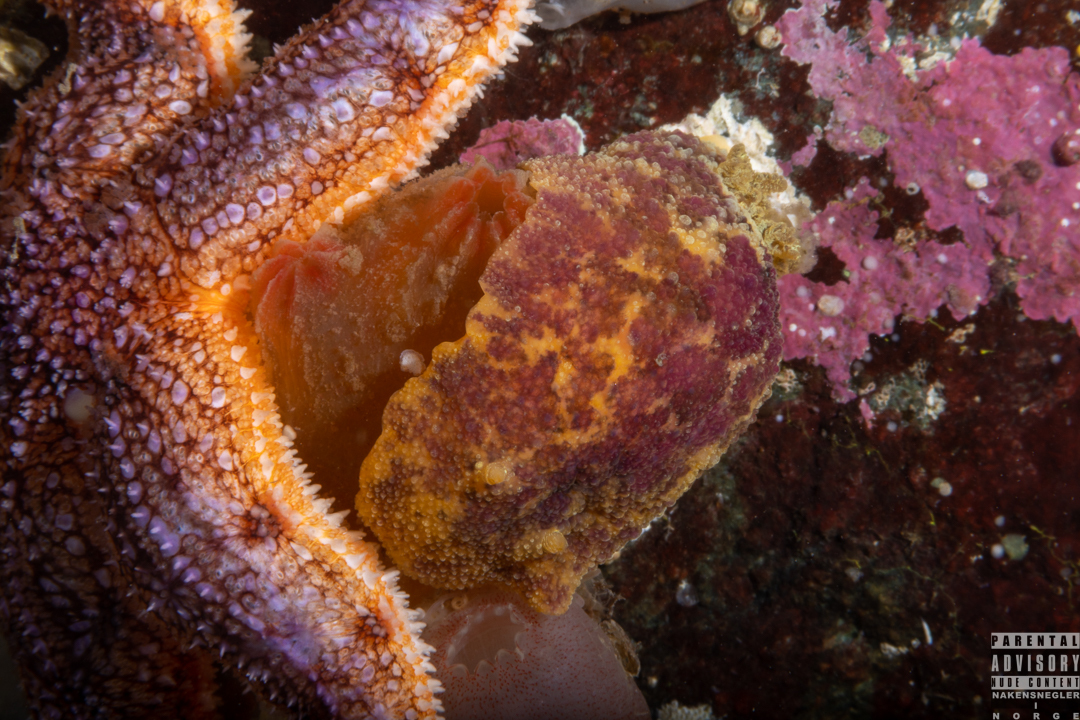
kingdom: Animalia
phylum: Mollusca
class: Gastropoda
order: Nudibranchia
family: Dorididae
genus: Doris
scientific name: Doris pseudoargus
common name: Sea lemon
